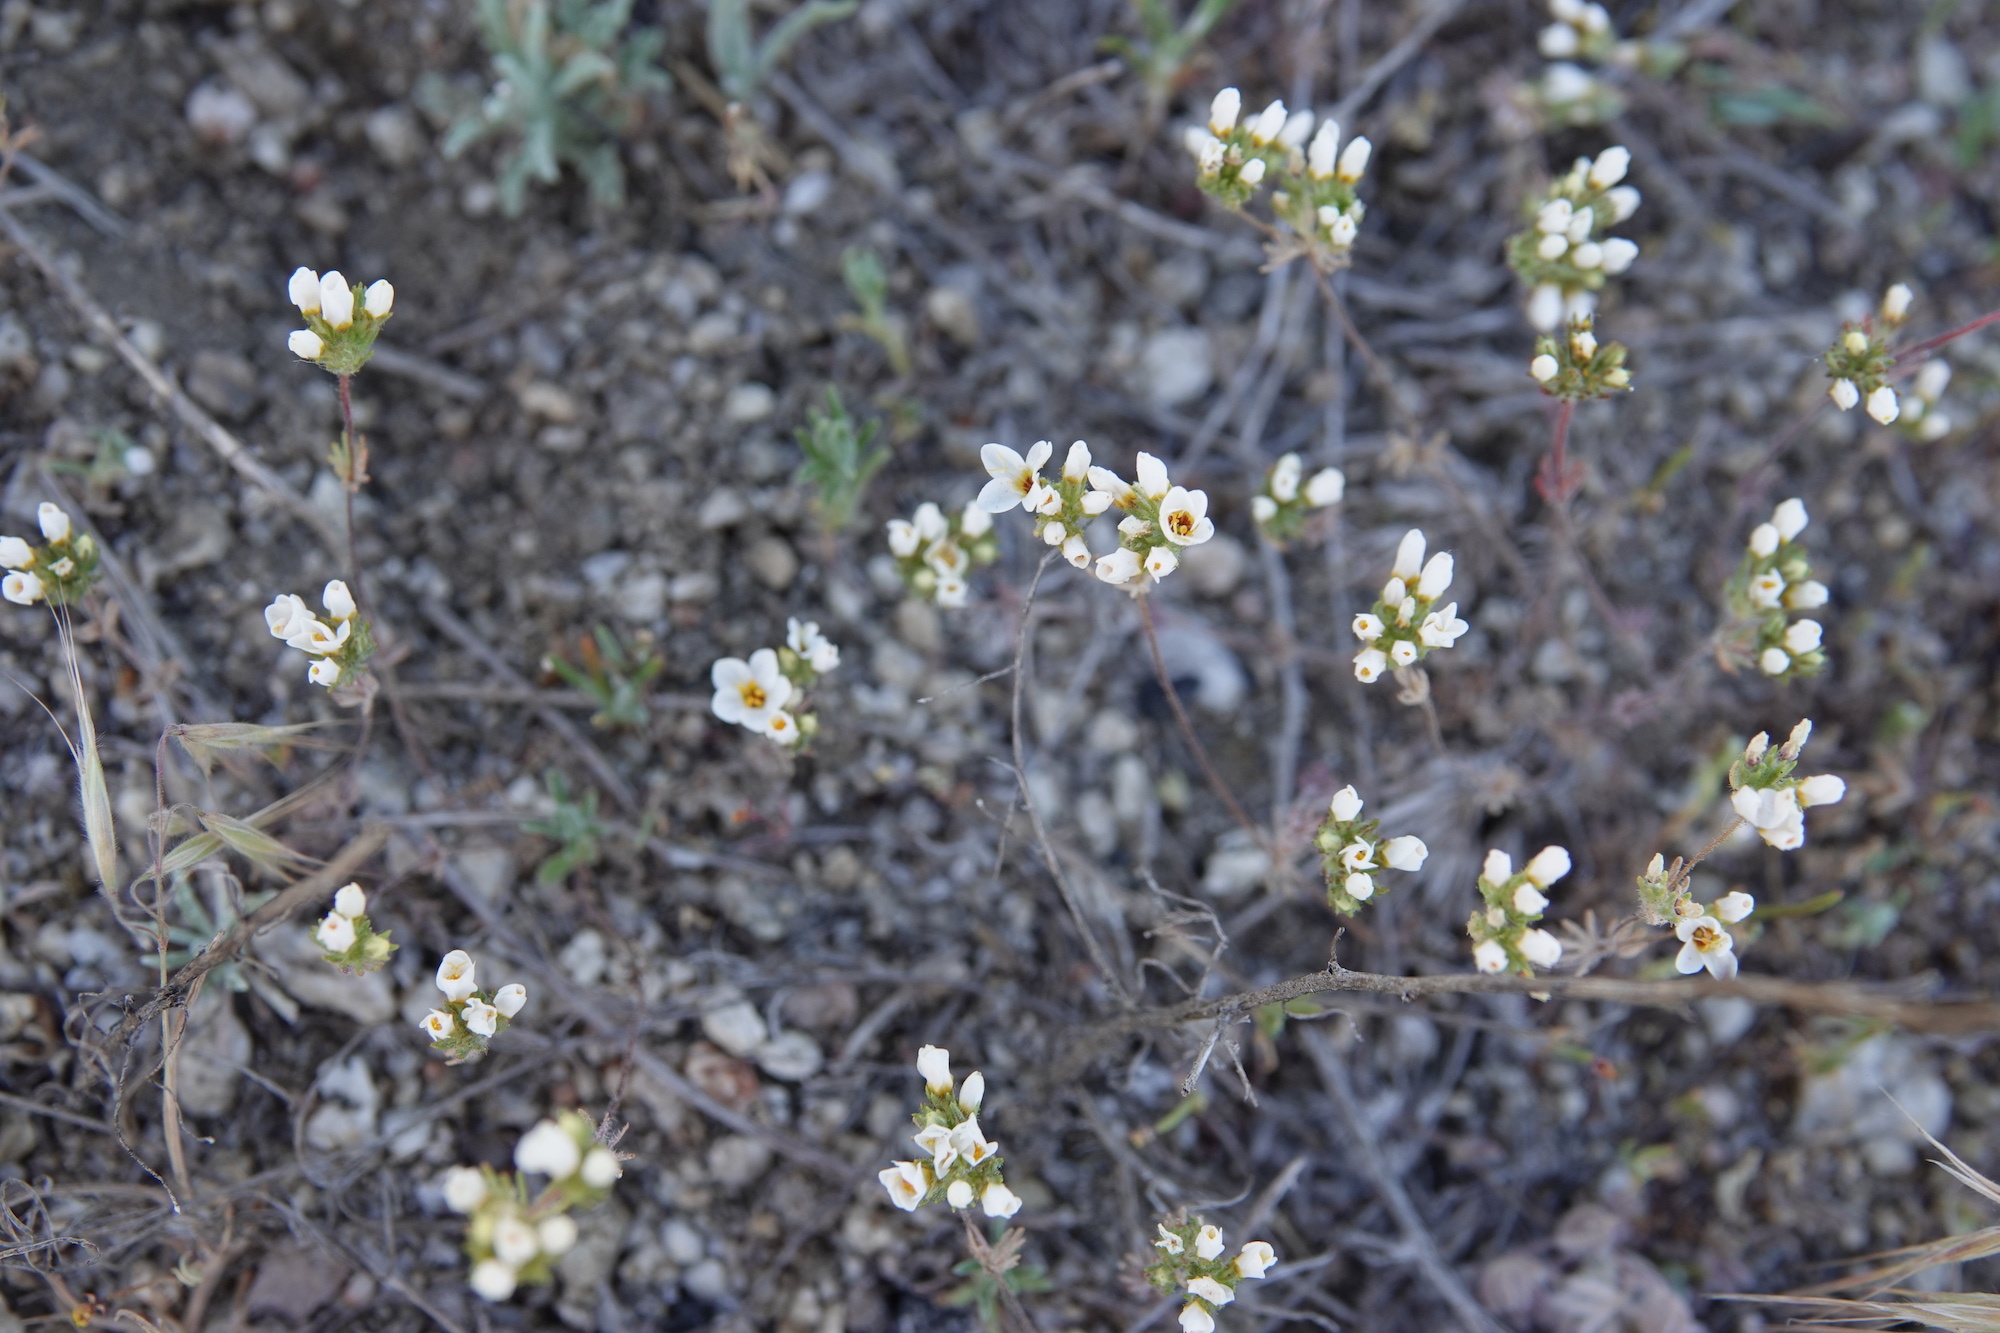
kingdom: Plantae
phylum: Tracheophyta
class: Magnoliopsida
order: Ericales
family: Polemoniaceae
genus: Leptosiphon
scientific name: Leptosiphon lemmonii
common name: Lemmon's linanthus
